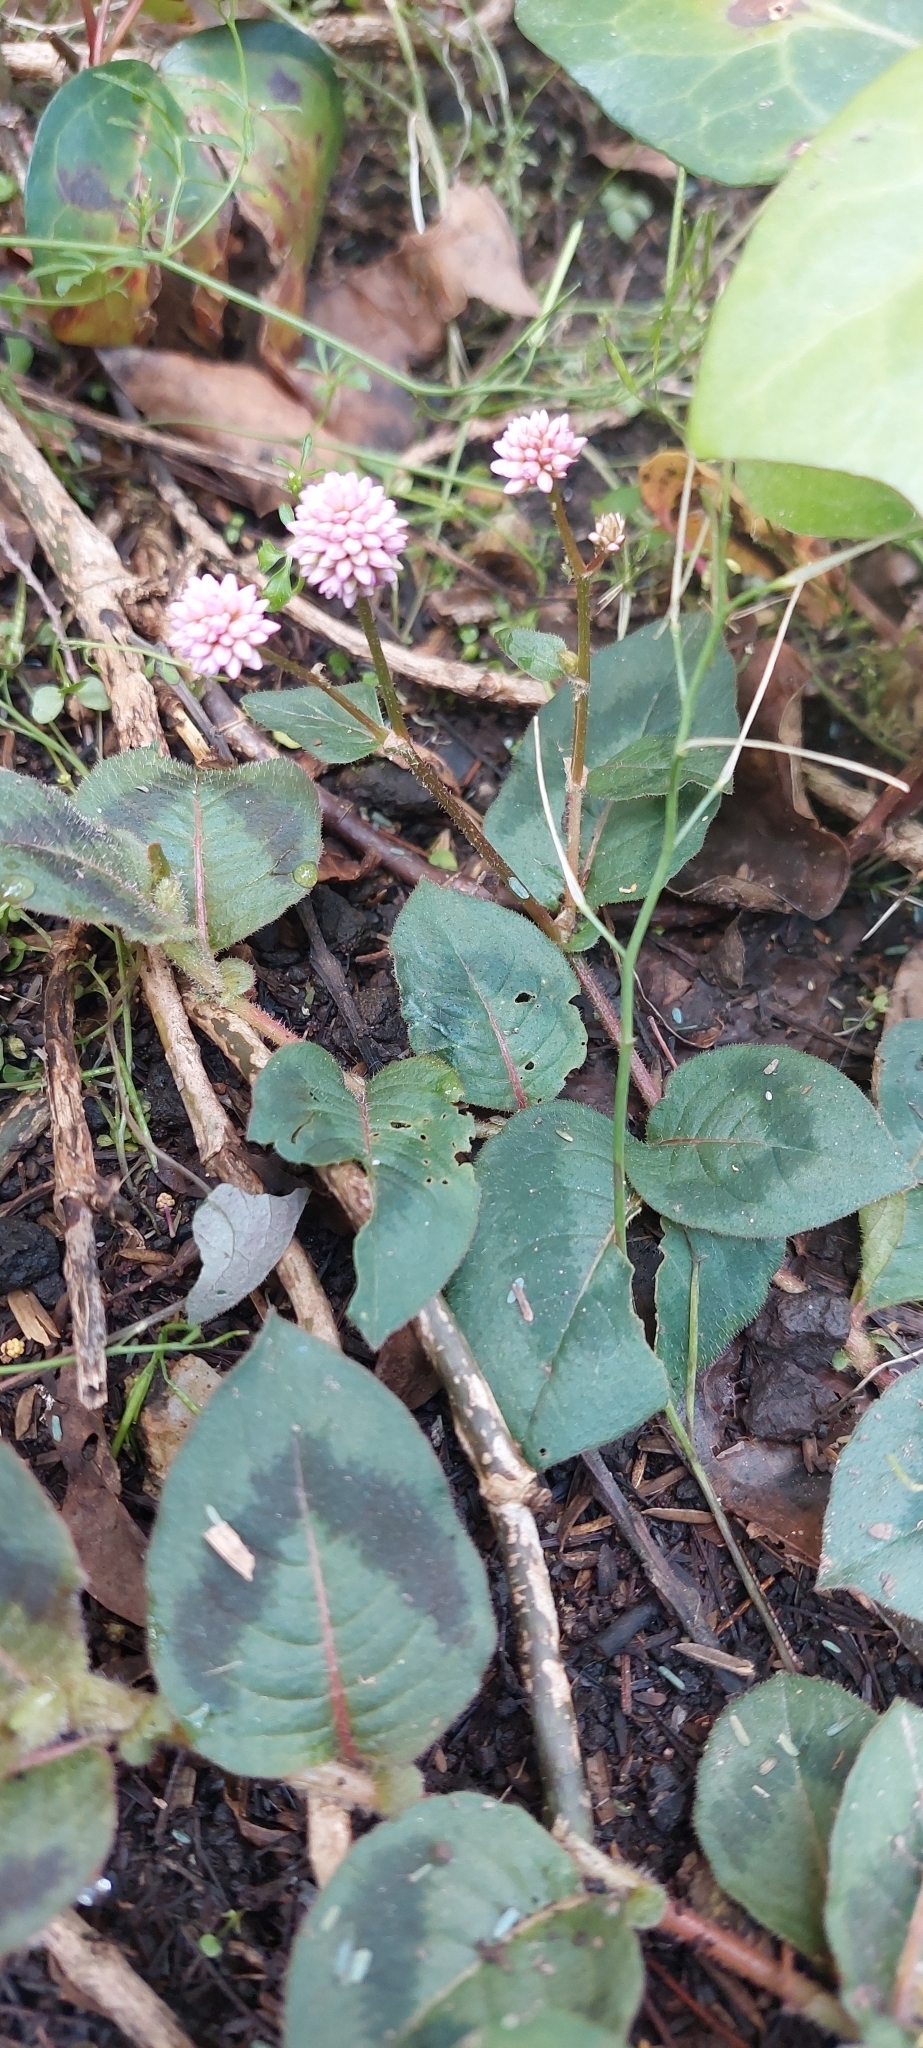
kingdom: Plantae
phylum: Tracheophyta
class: Magnoliopsida
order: Caryophyllales
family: Polygonaceae
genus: Persicaria
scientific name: Persicaria capitata
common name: Pinkhead smartweed
